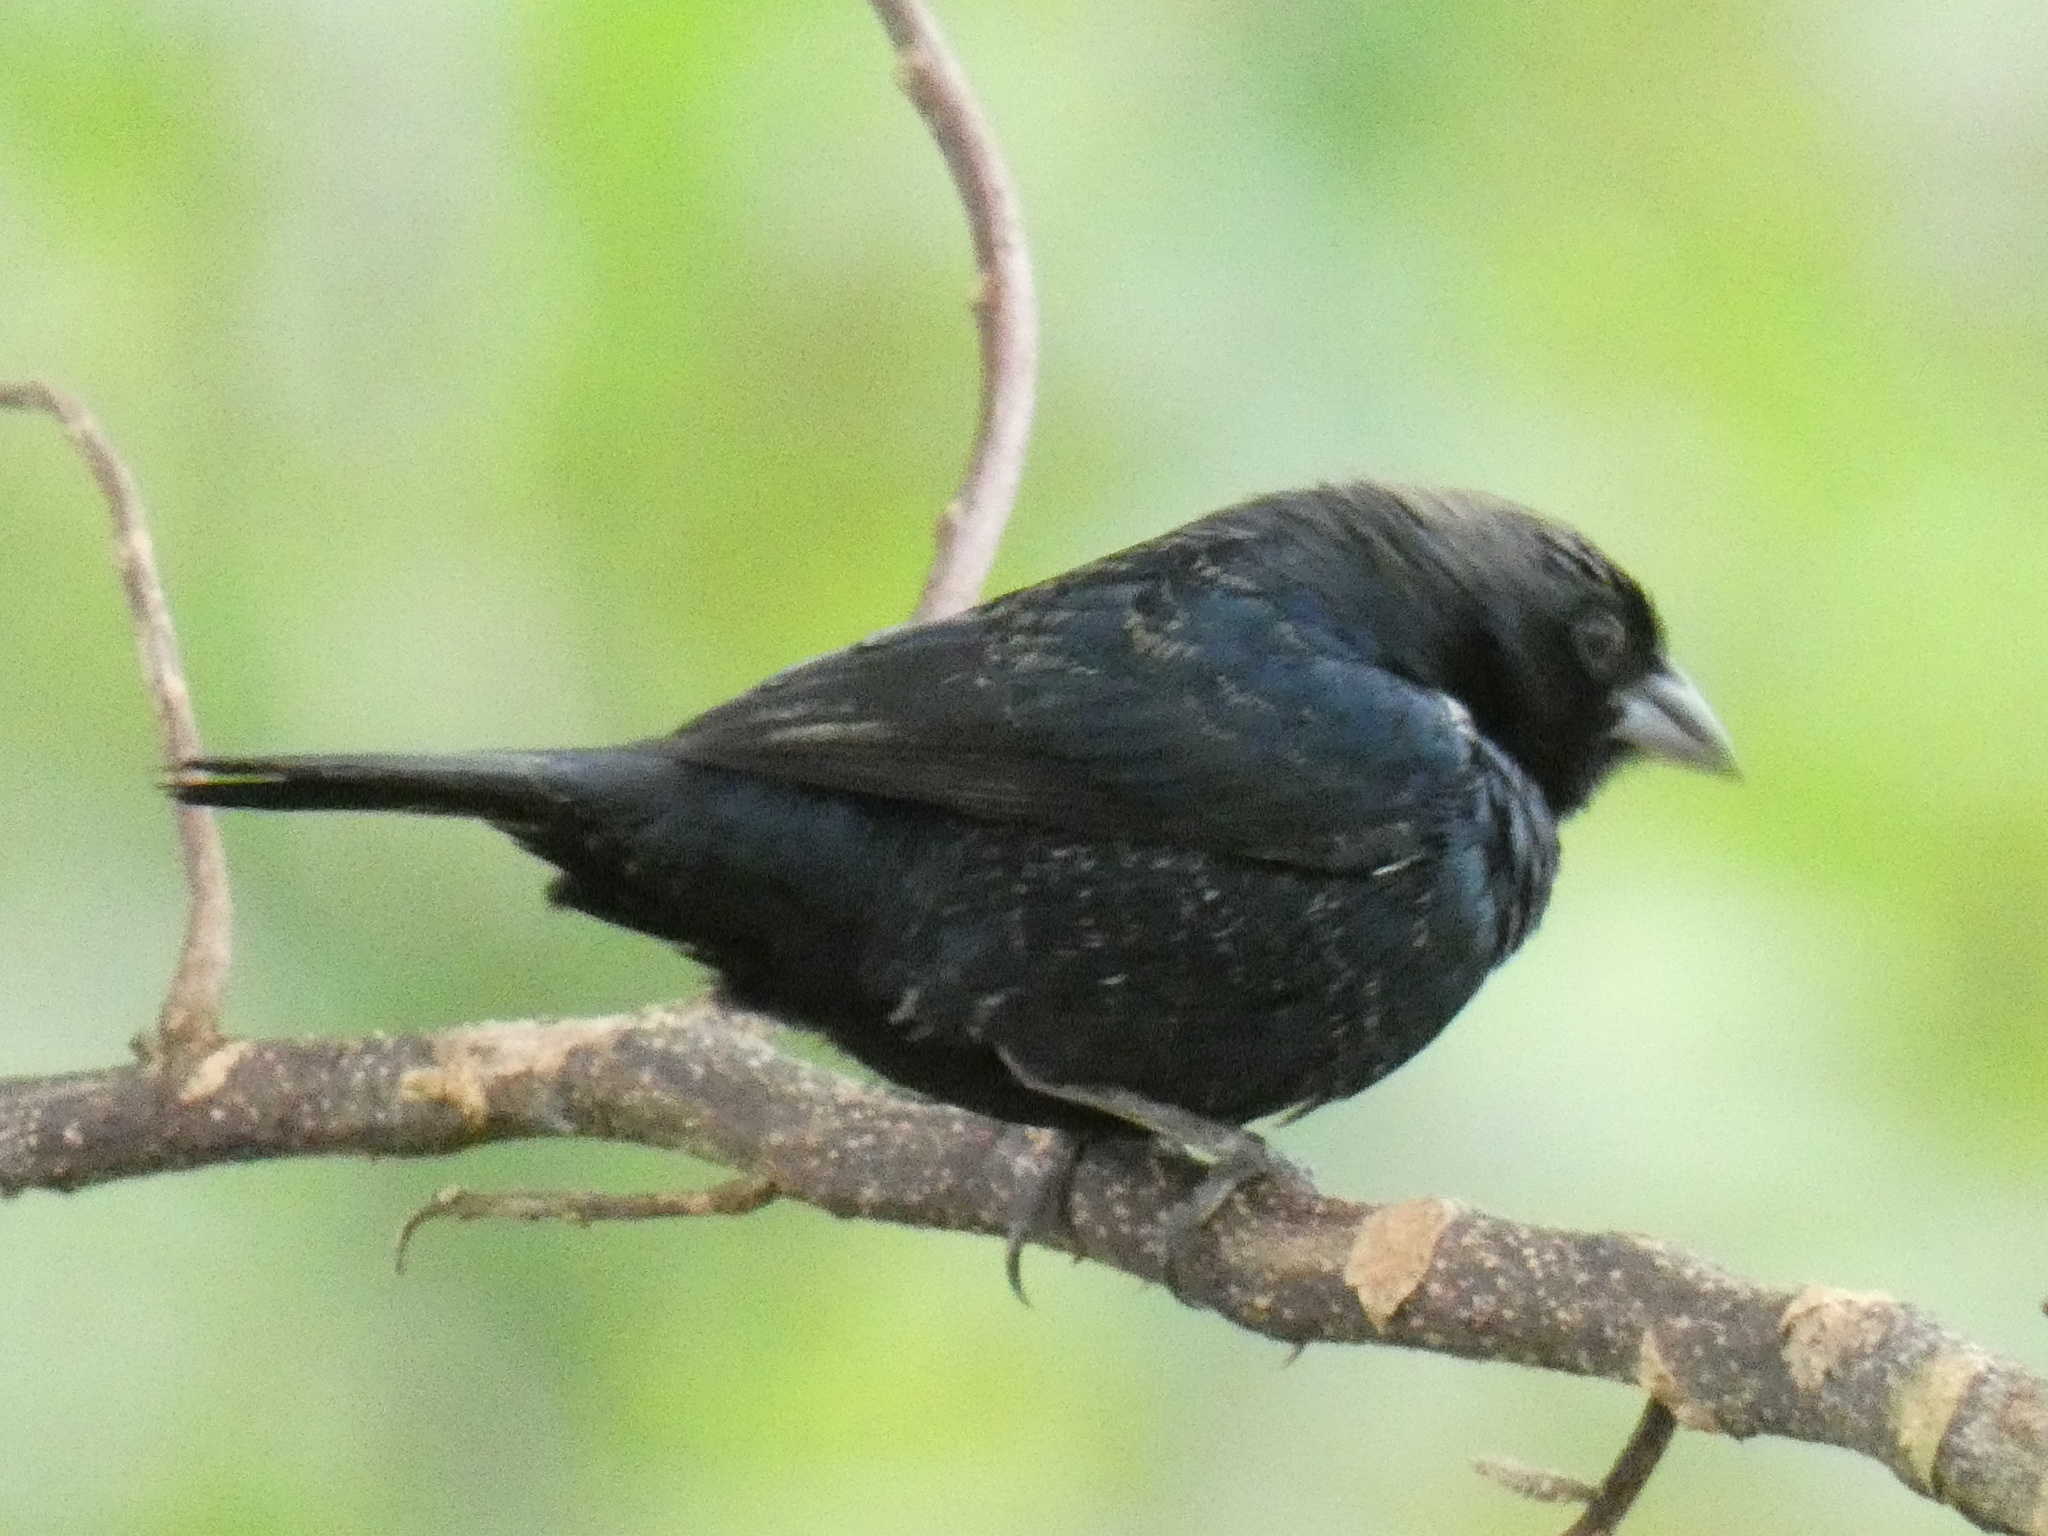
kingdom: Animalia
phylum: Chordata
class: Aves
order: Passeriformes
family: Thraupidae
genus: Volatinia
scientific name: Volatinia jacarina
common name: Blue-black grassquit
